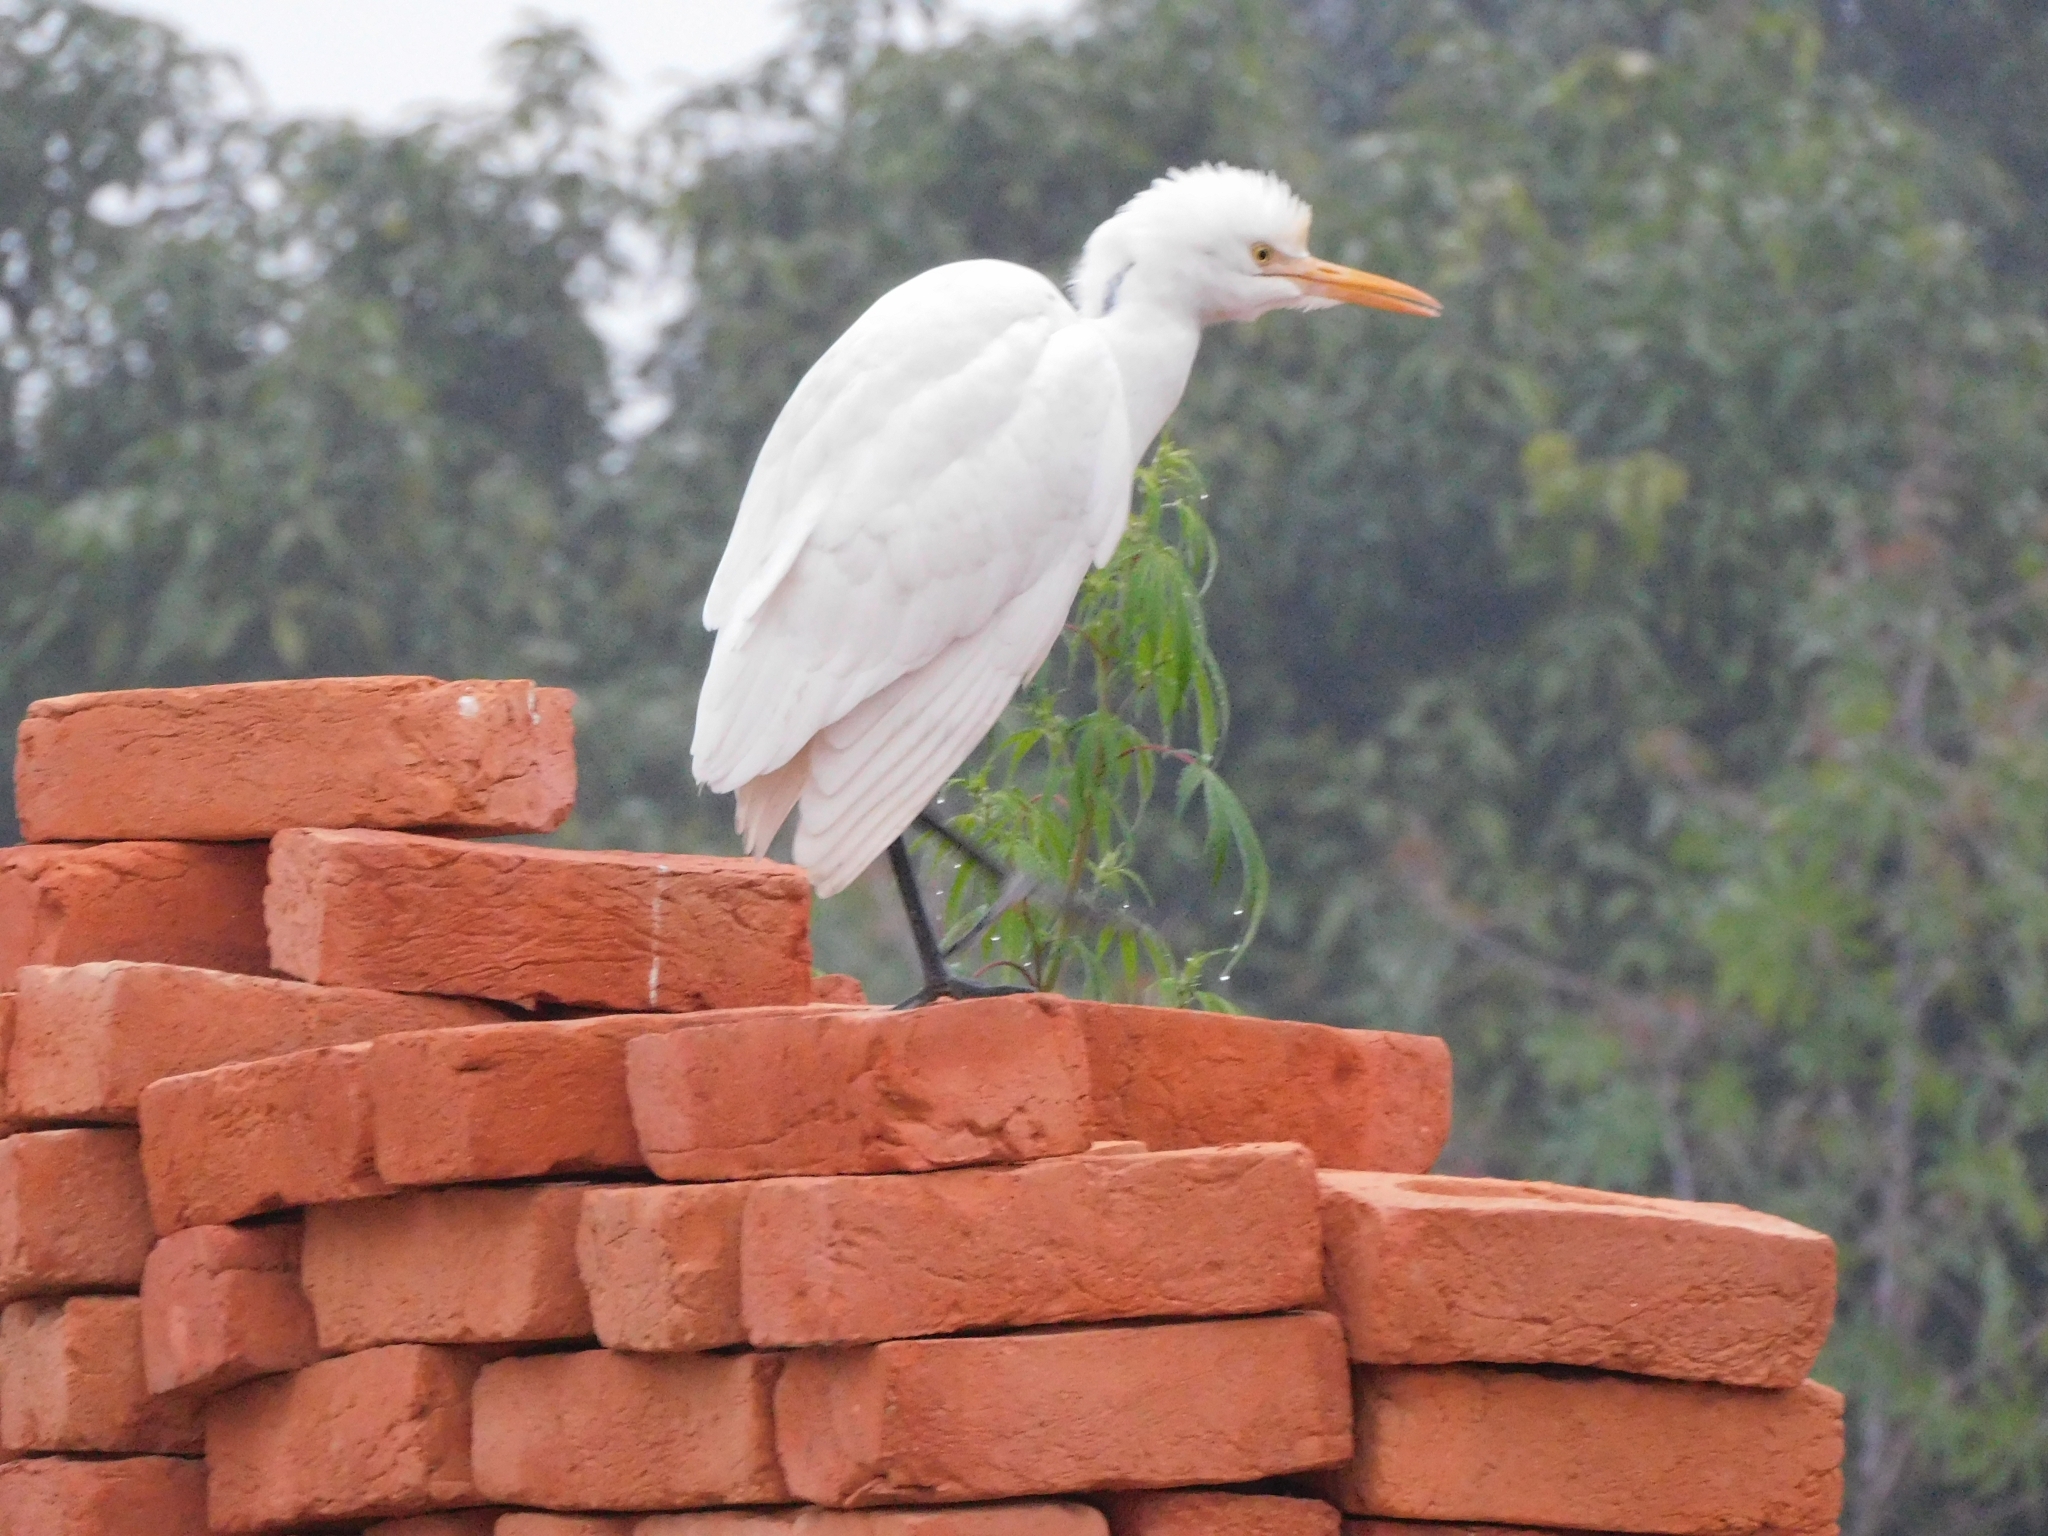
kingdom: Animalia
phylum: Chordata
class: Aves
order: Pelecaniformes
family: Ardeidae
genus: Bubulcus
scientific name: Bubulcus coromandus
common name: Eastern cattle egret
